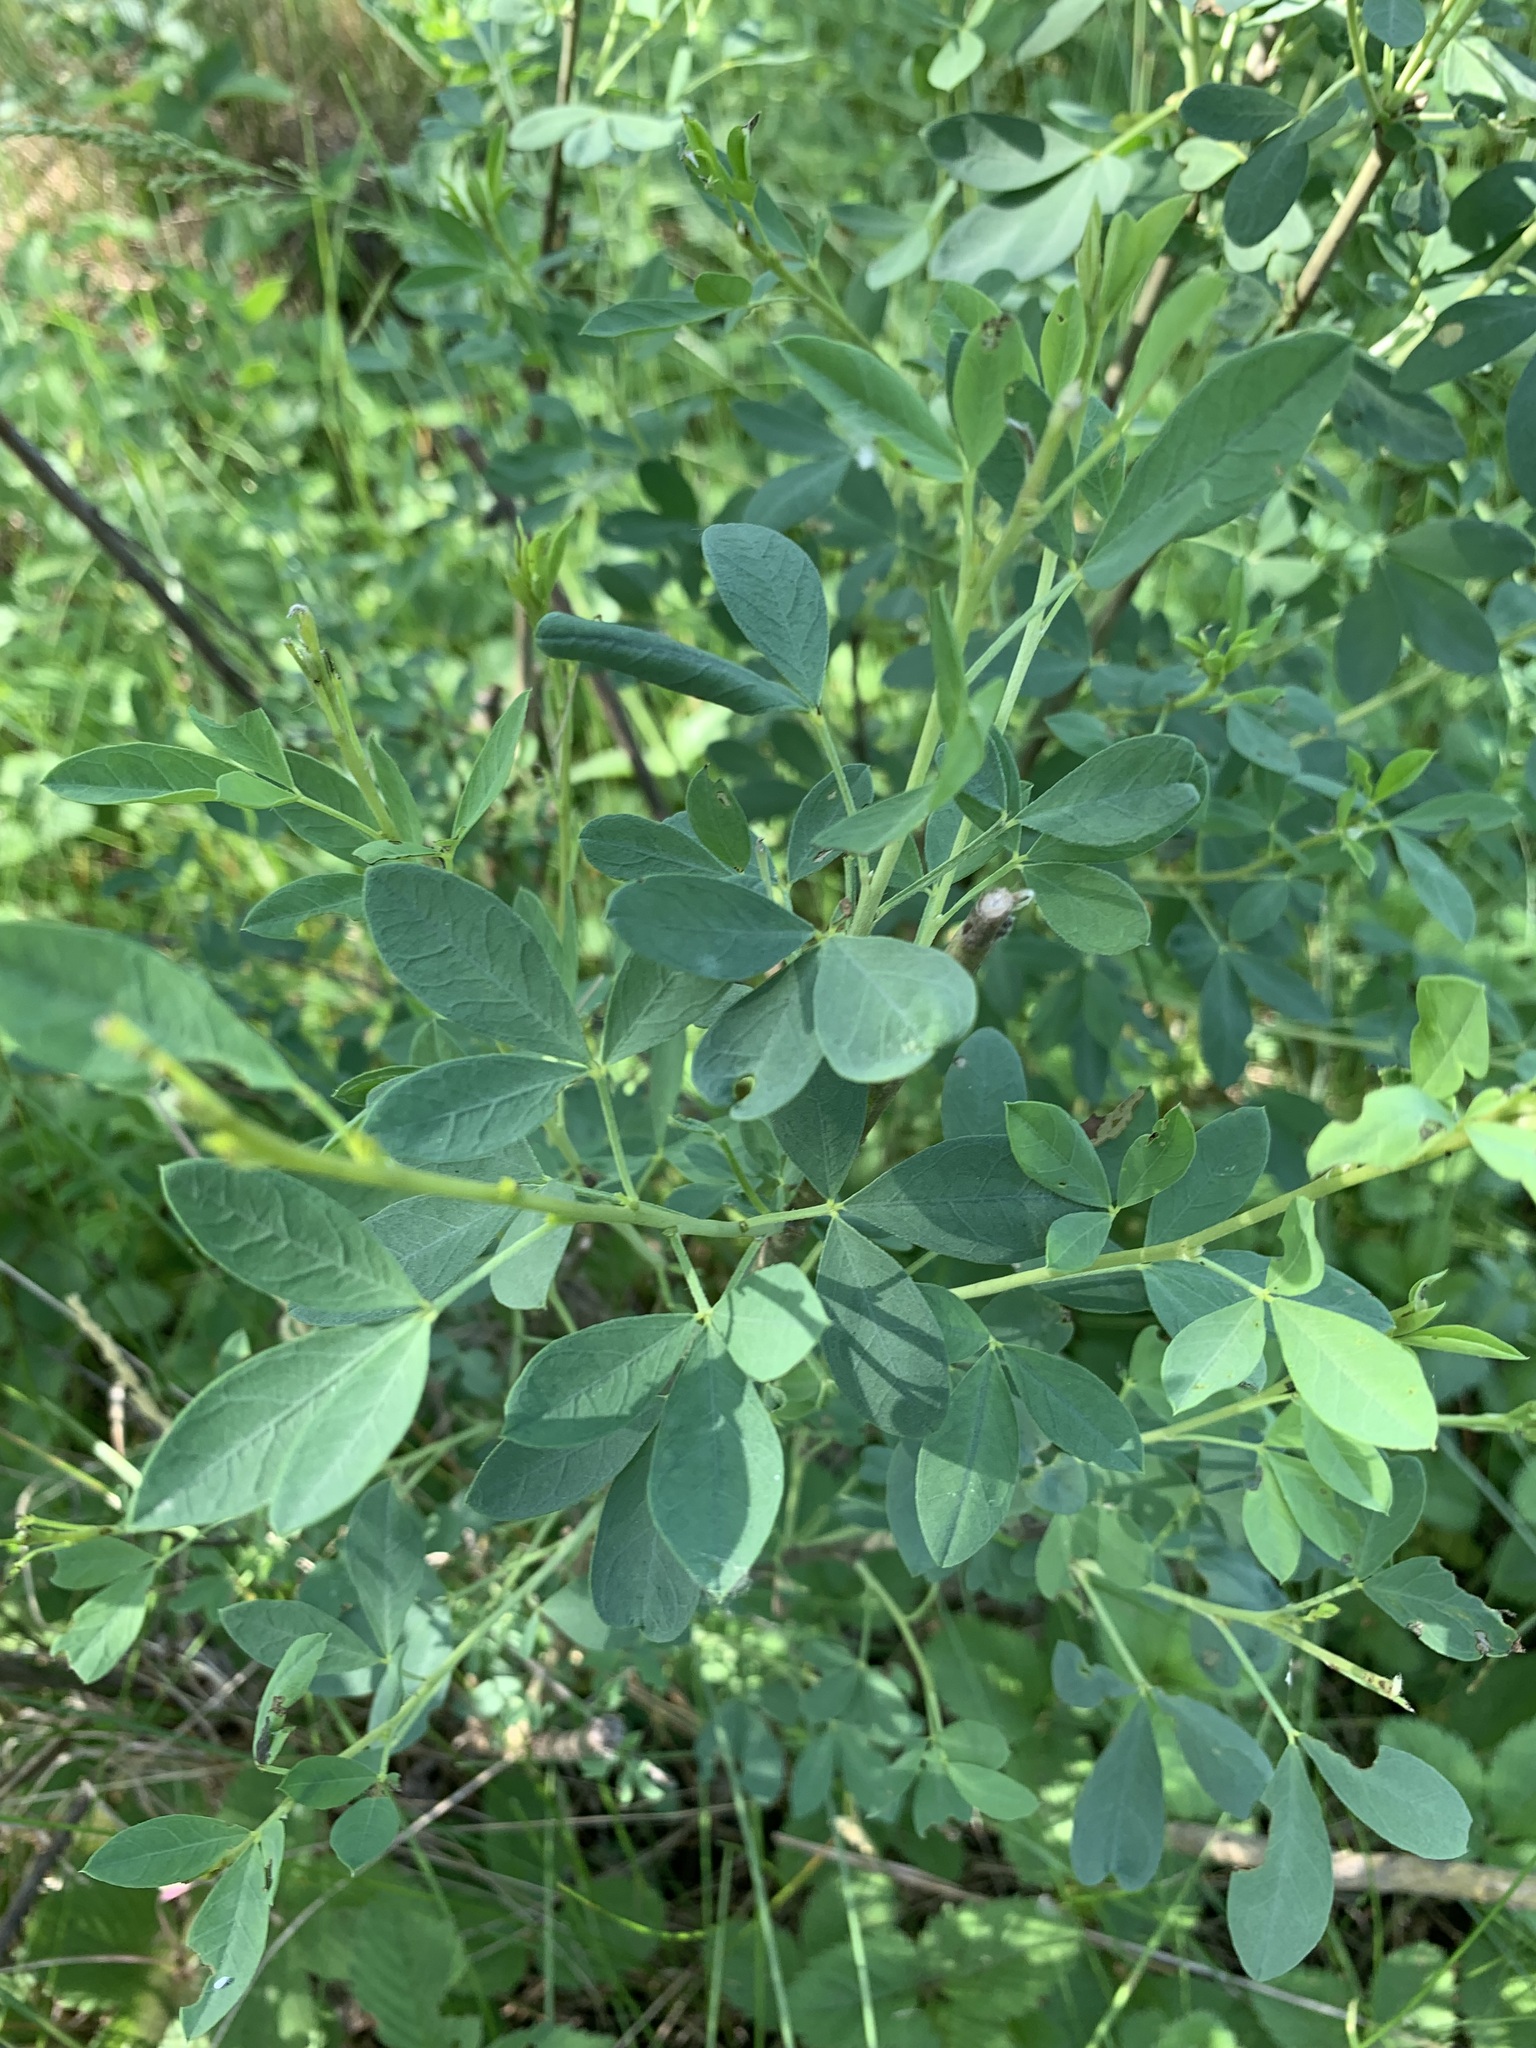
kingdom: Plantae
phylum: Tracheophyta
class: Magnoliopsida
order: Fabales
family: Fabaceae
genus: Chamaecytisus
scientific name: Chamaecytisus ruthenicus
